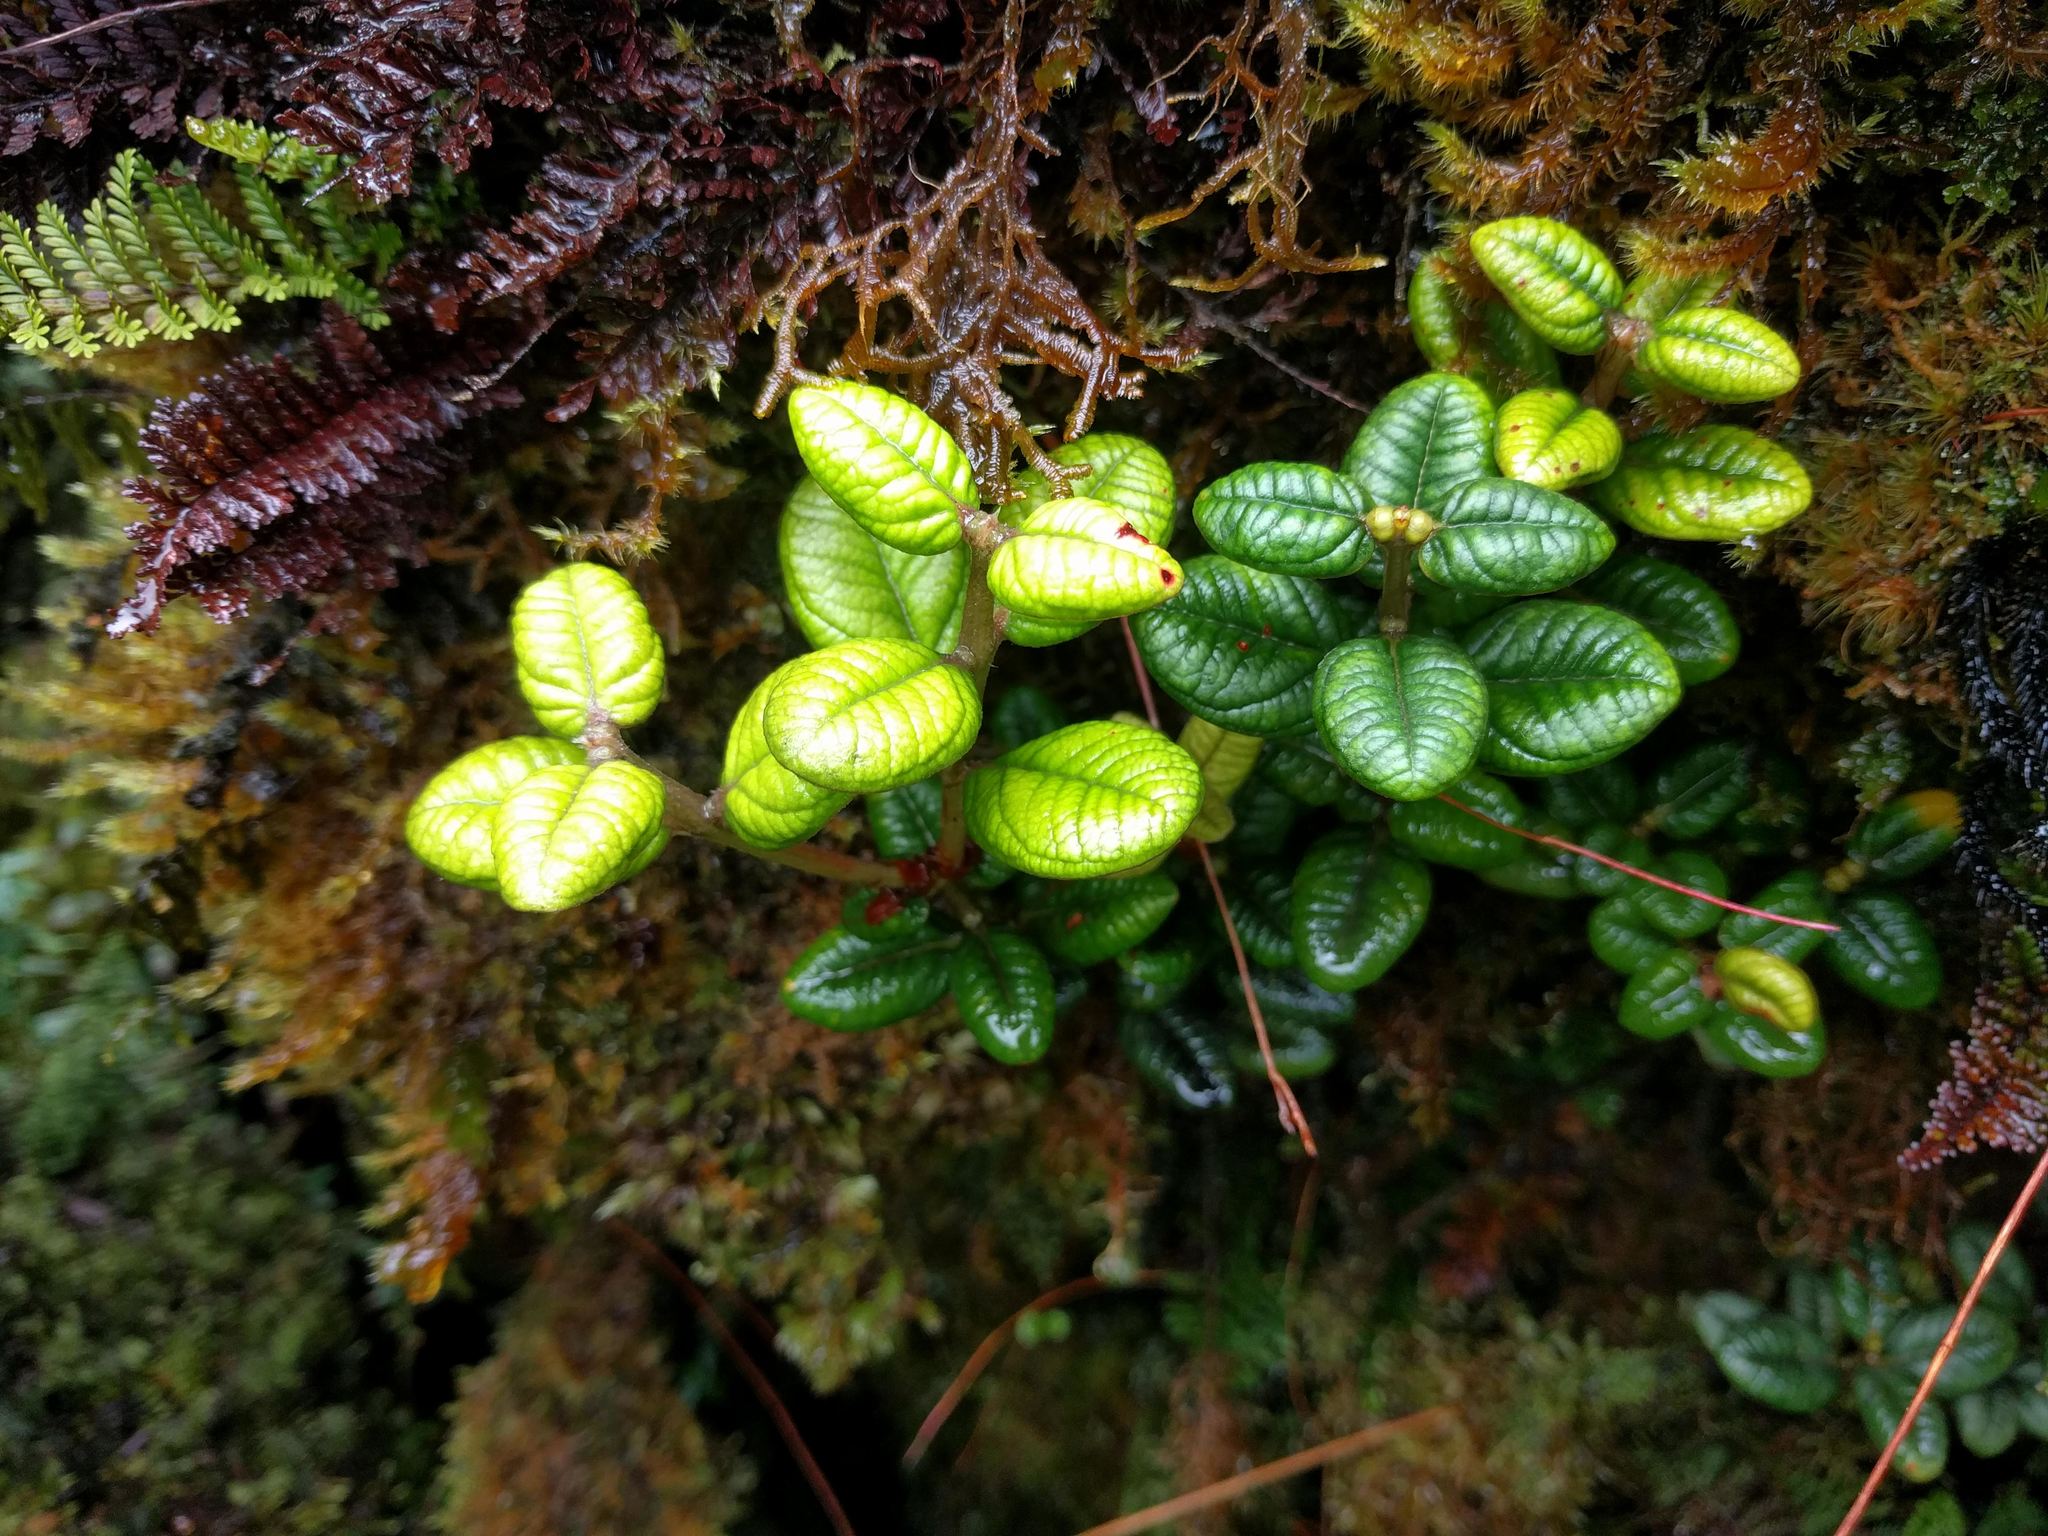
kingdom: Plantae
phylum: Tracheophyta
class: Magnoliopsida
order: Myrtales
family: Myrtaceae
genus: Metrosideros
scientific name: Metrosideros rugosa
